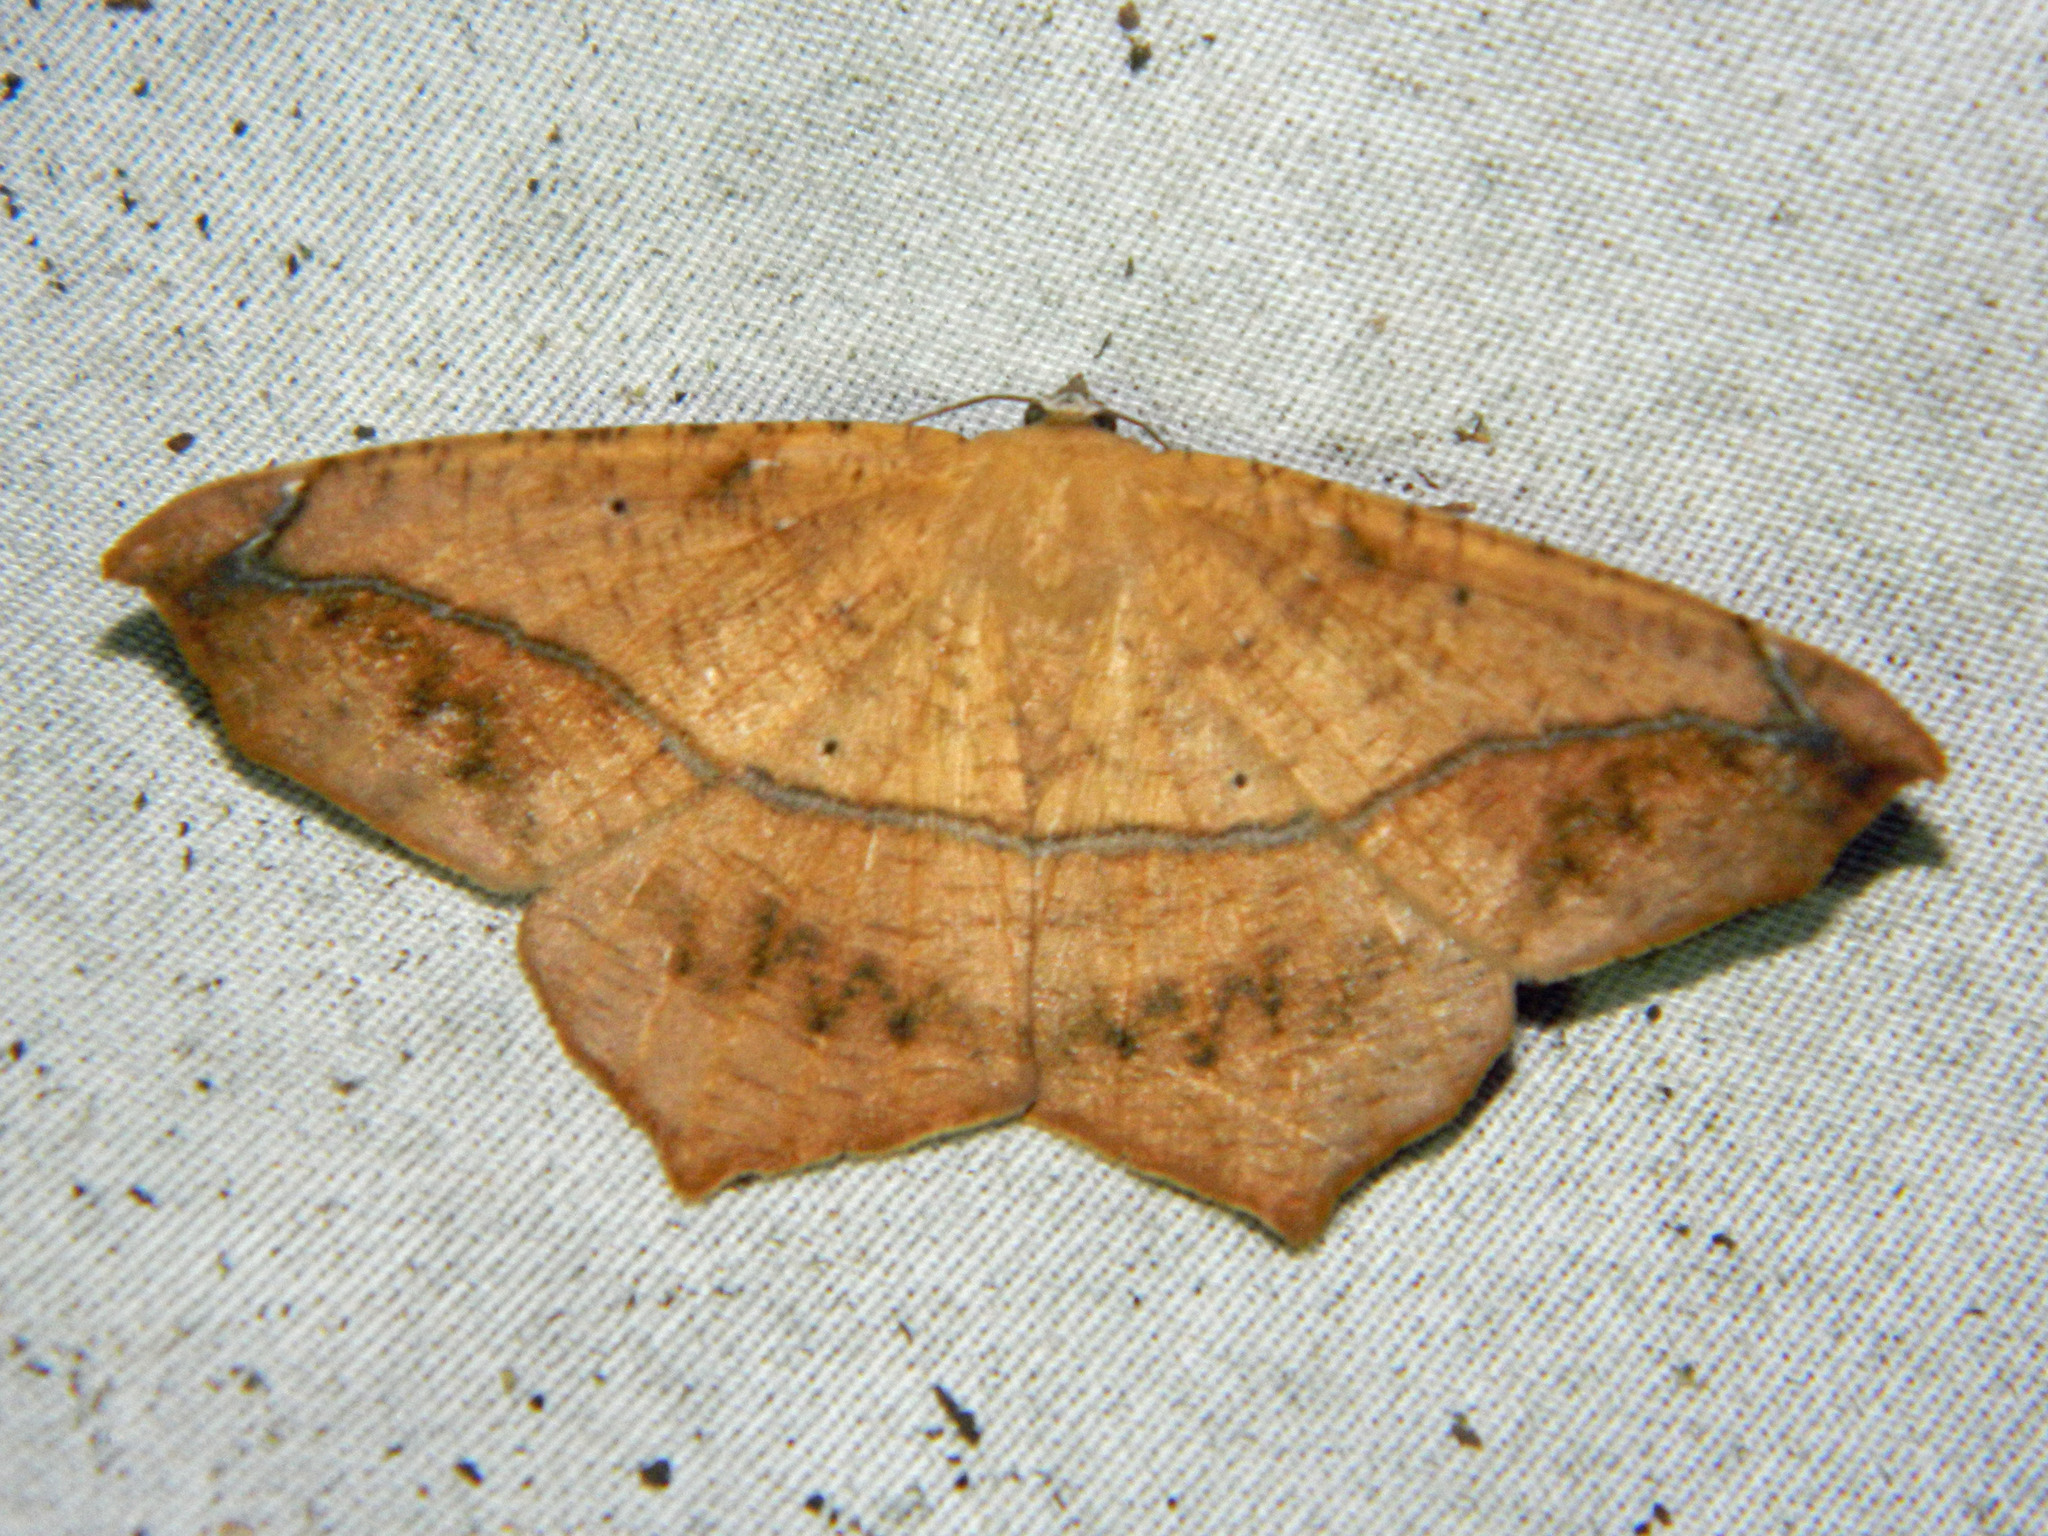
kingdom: Animalia
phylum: Arthropoda
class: Insecta
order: Lepidoptera
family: Geometridae
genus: Prochoerodes
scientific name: Prochoerodes lineola
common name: Large maple spanworm
